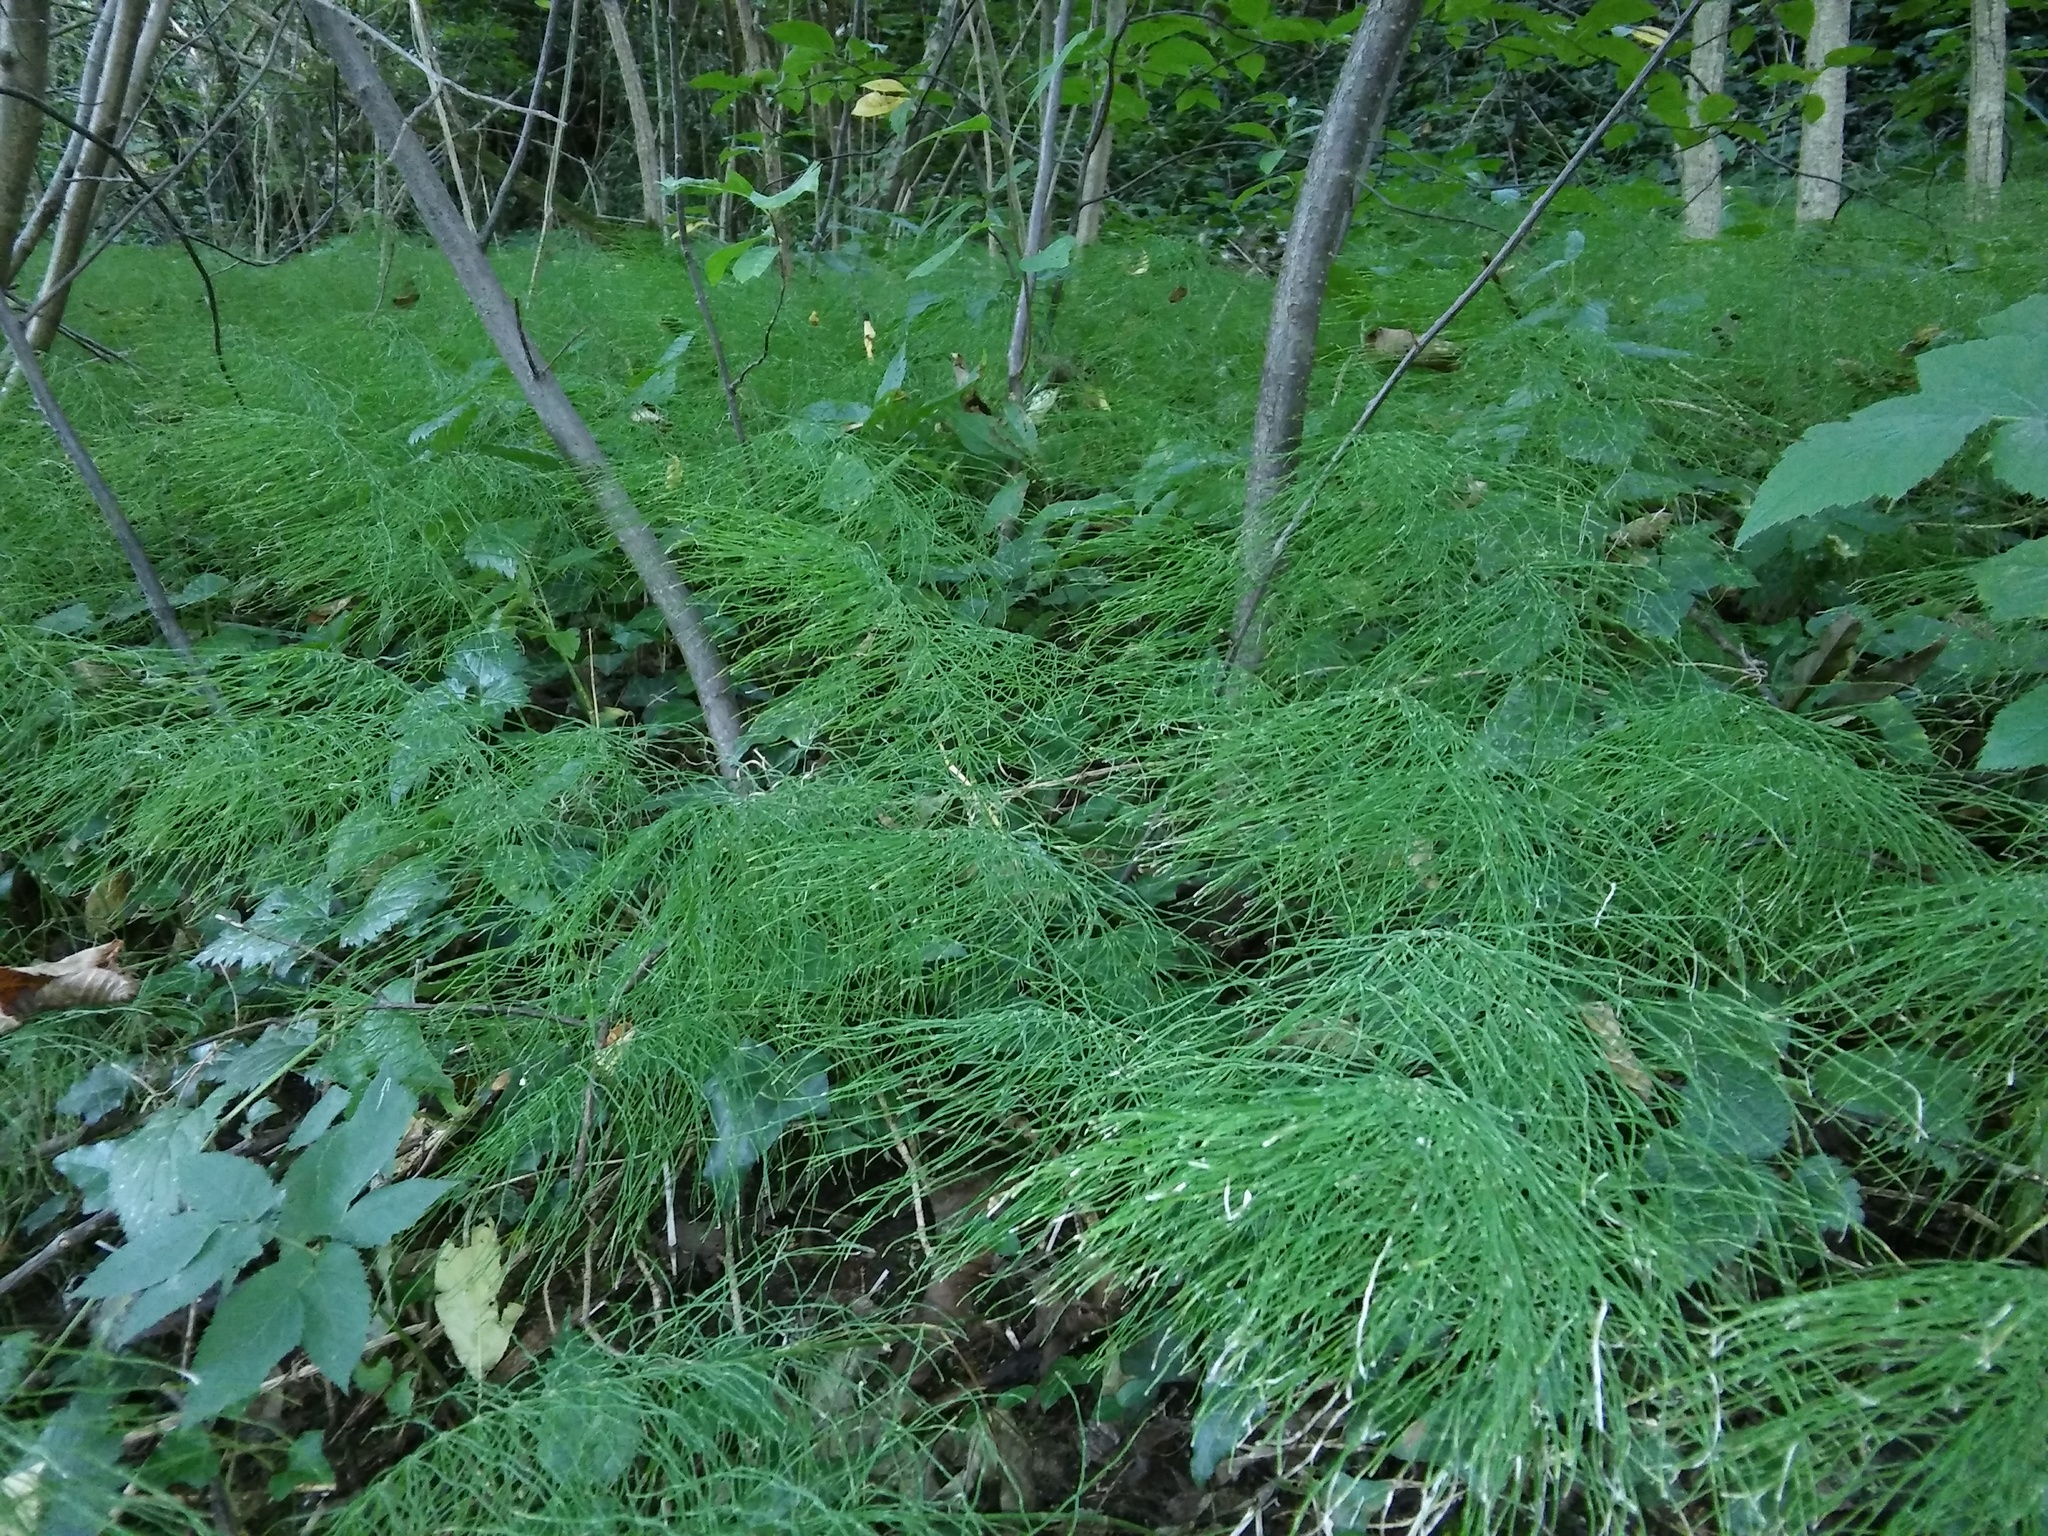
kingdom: Plantae
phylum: Tracheophyta
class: Polypodiopsida
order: Equisetales
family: Equisetaceae
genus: Equisetum
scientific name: Equisetum pratense
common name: Meadow horsetail
